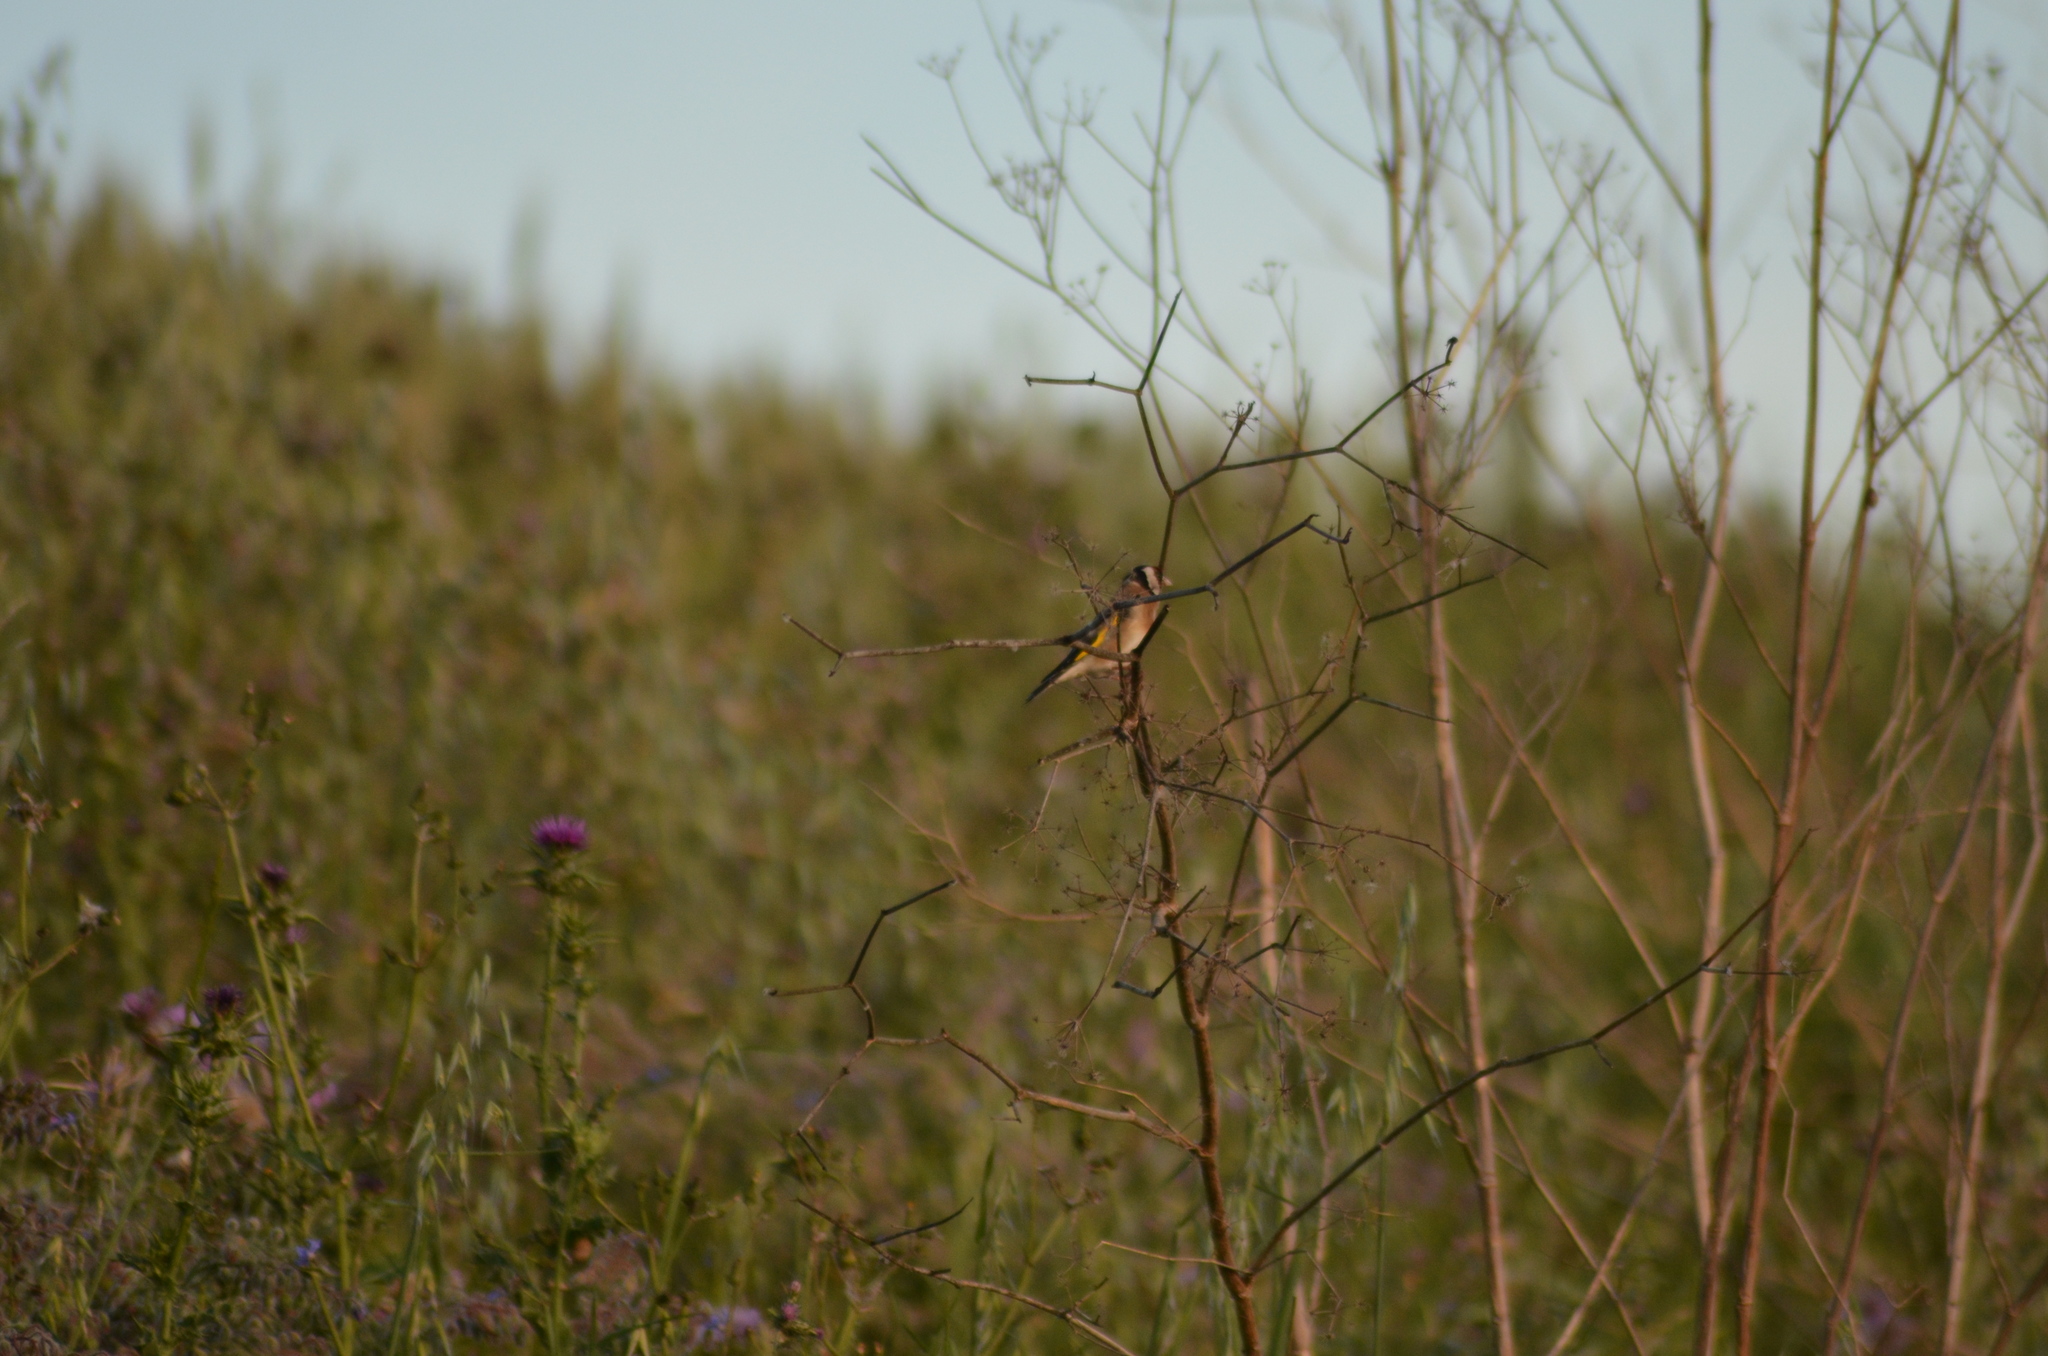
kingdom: Animalia
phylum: Chordata
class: Aves
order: Passeriformes
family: Fringillidae
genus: Carduelis
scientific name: Carduelis carduelis
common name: European goldfinch
